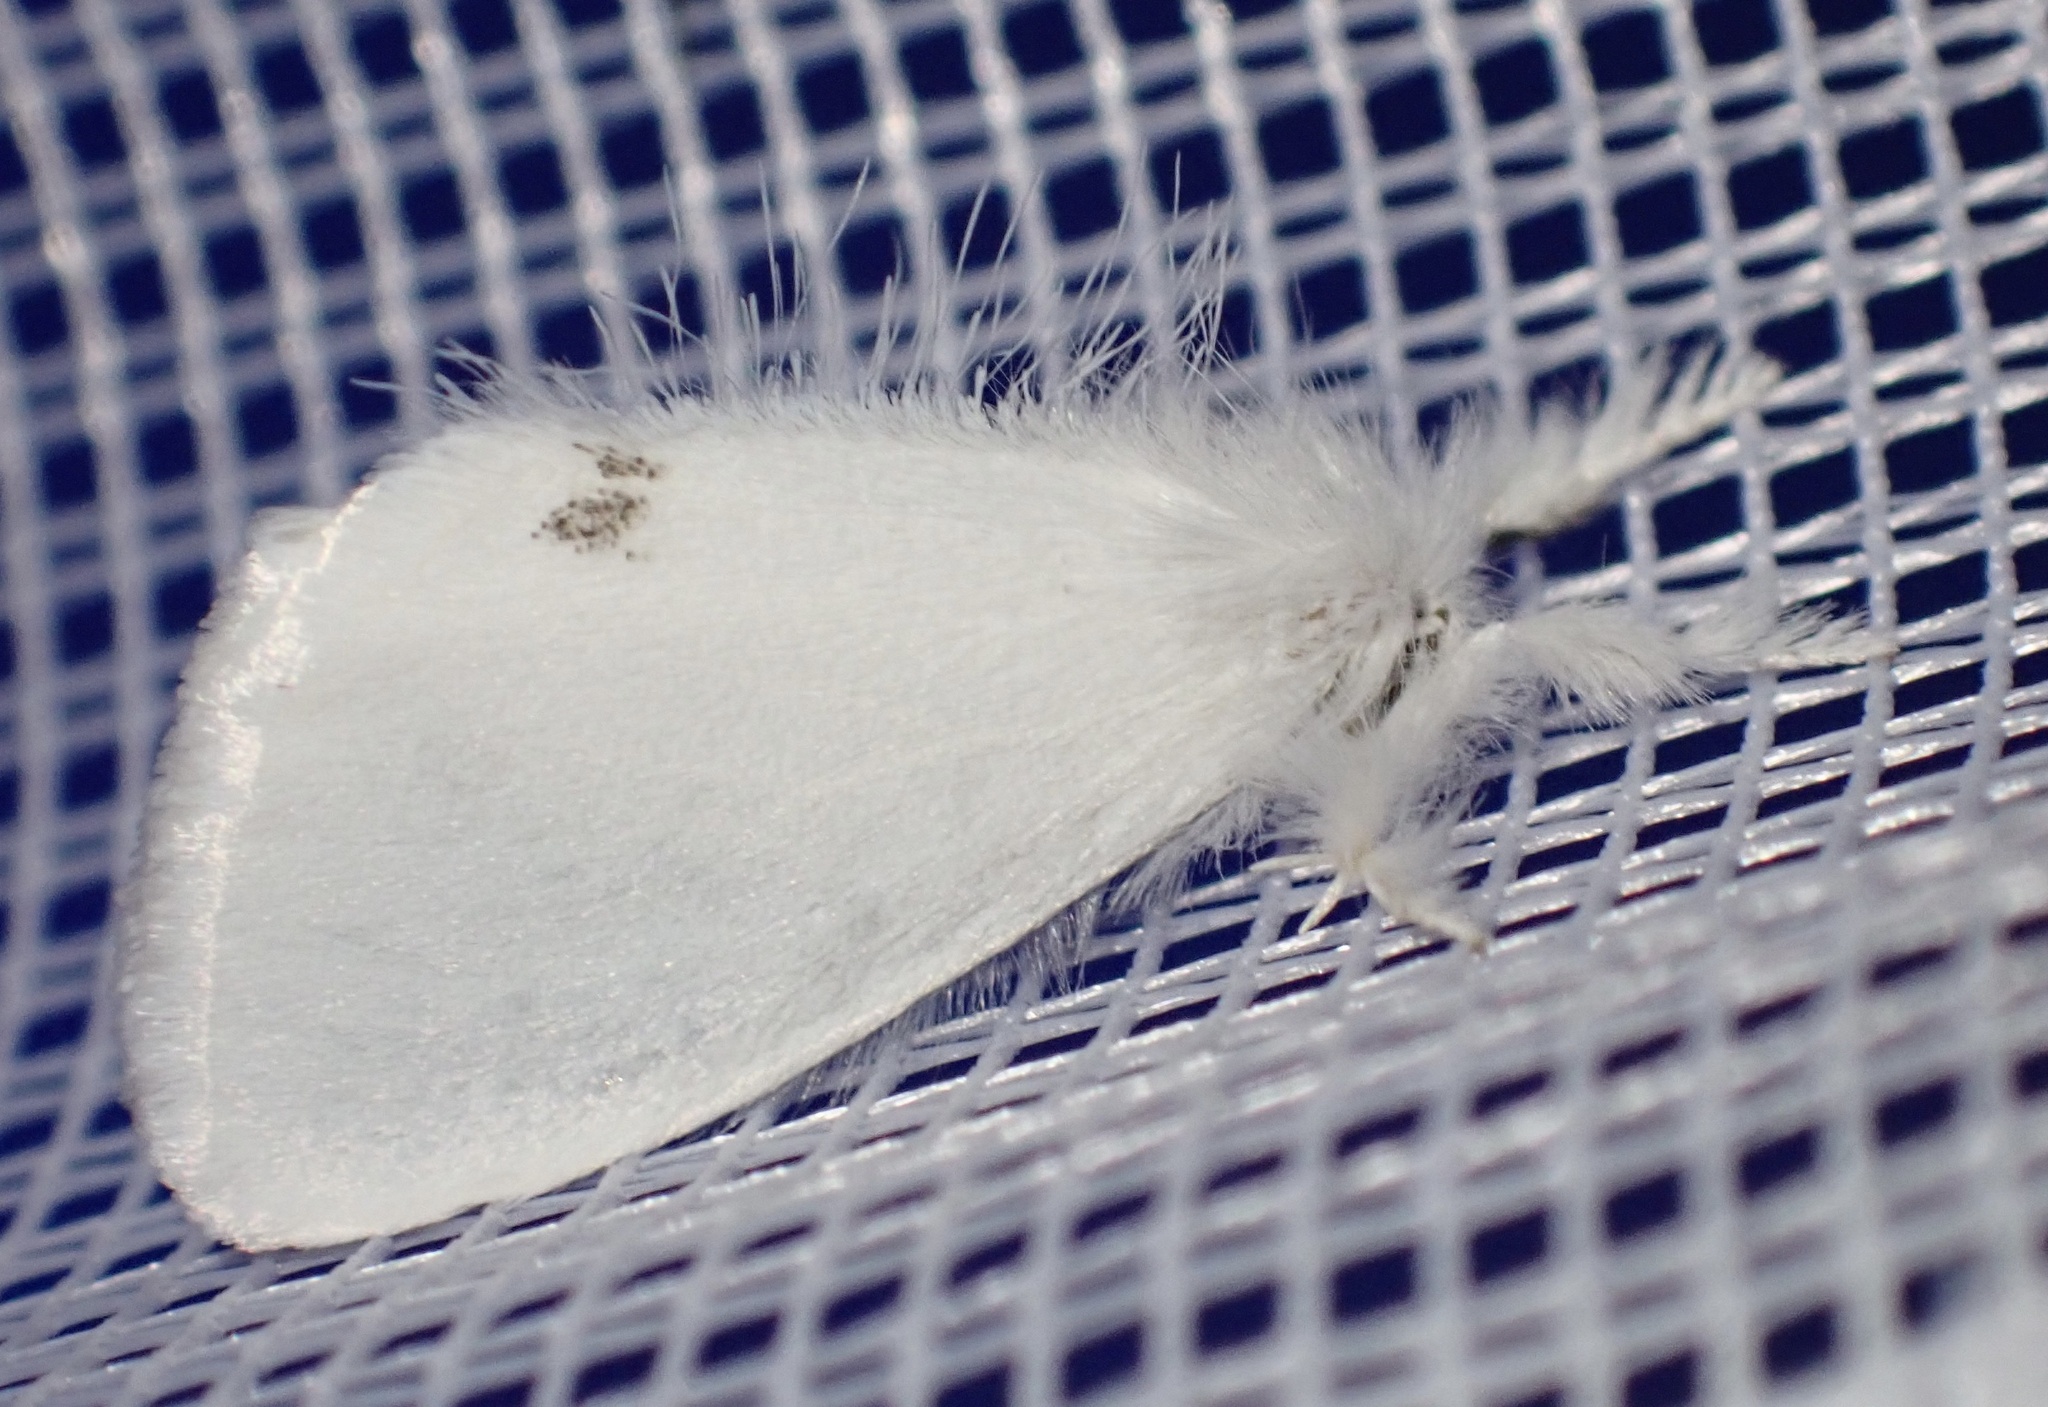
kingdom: Animalia
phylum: Arthropoda
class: Insecta
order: Lepidoptera
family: Erebidae
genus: Sphrageidus
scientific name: Sphrageidus similis
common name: Yellow-tail
